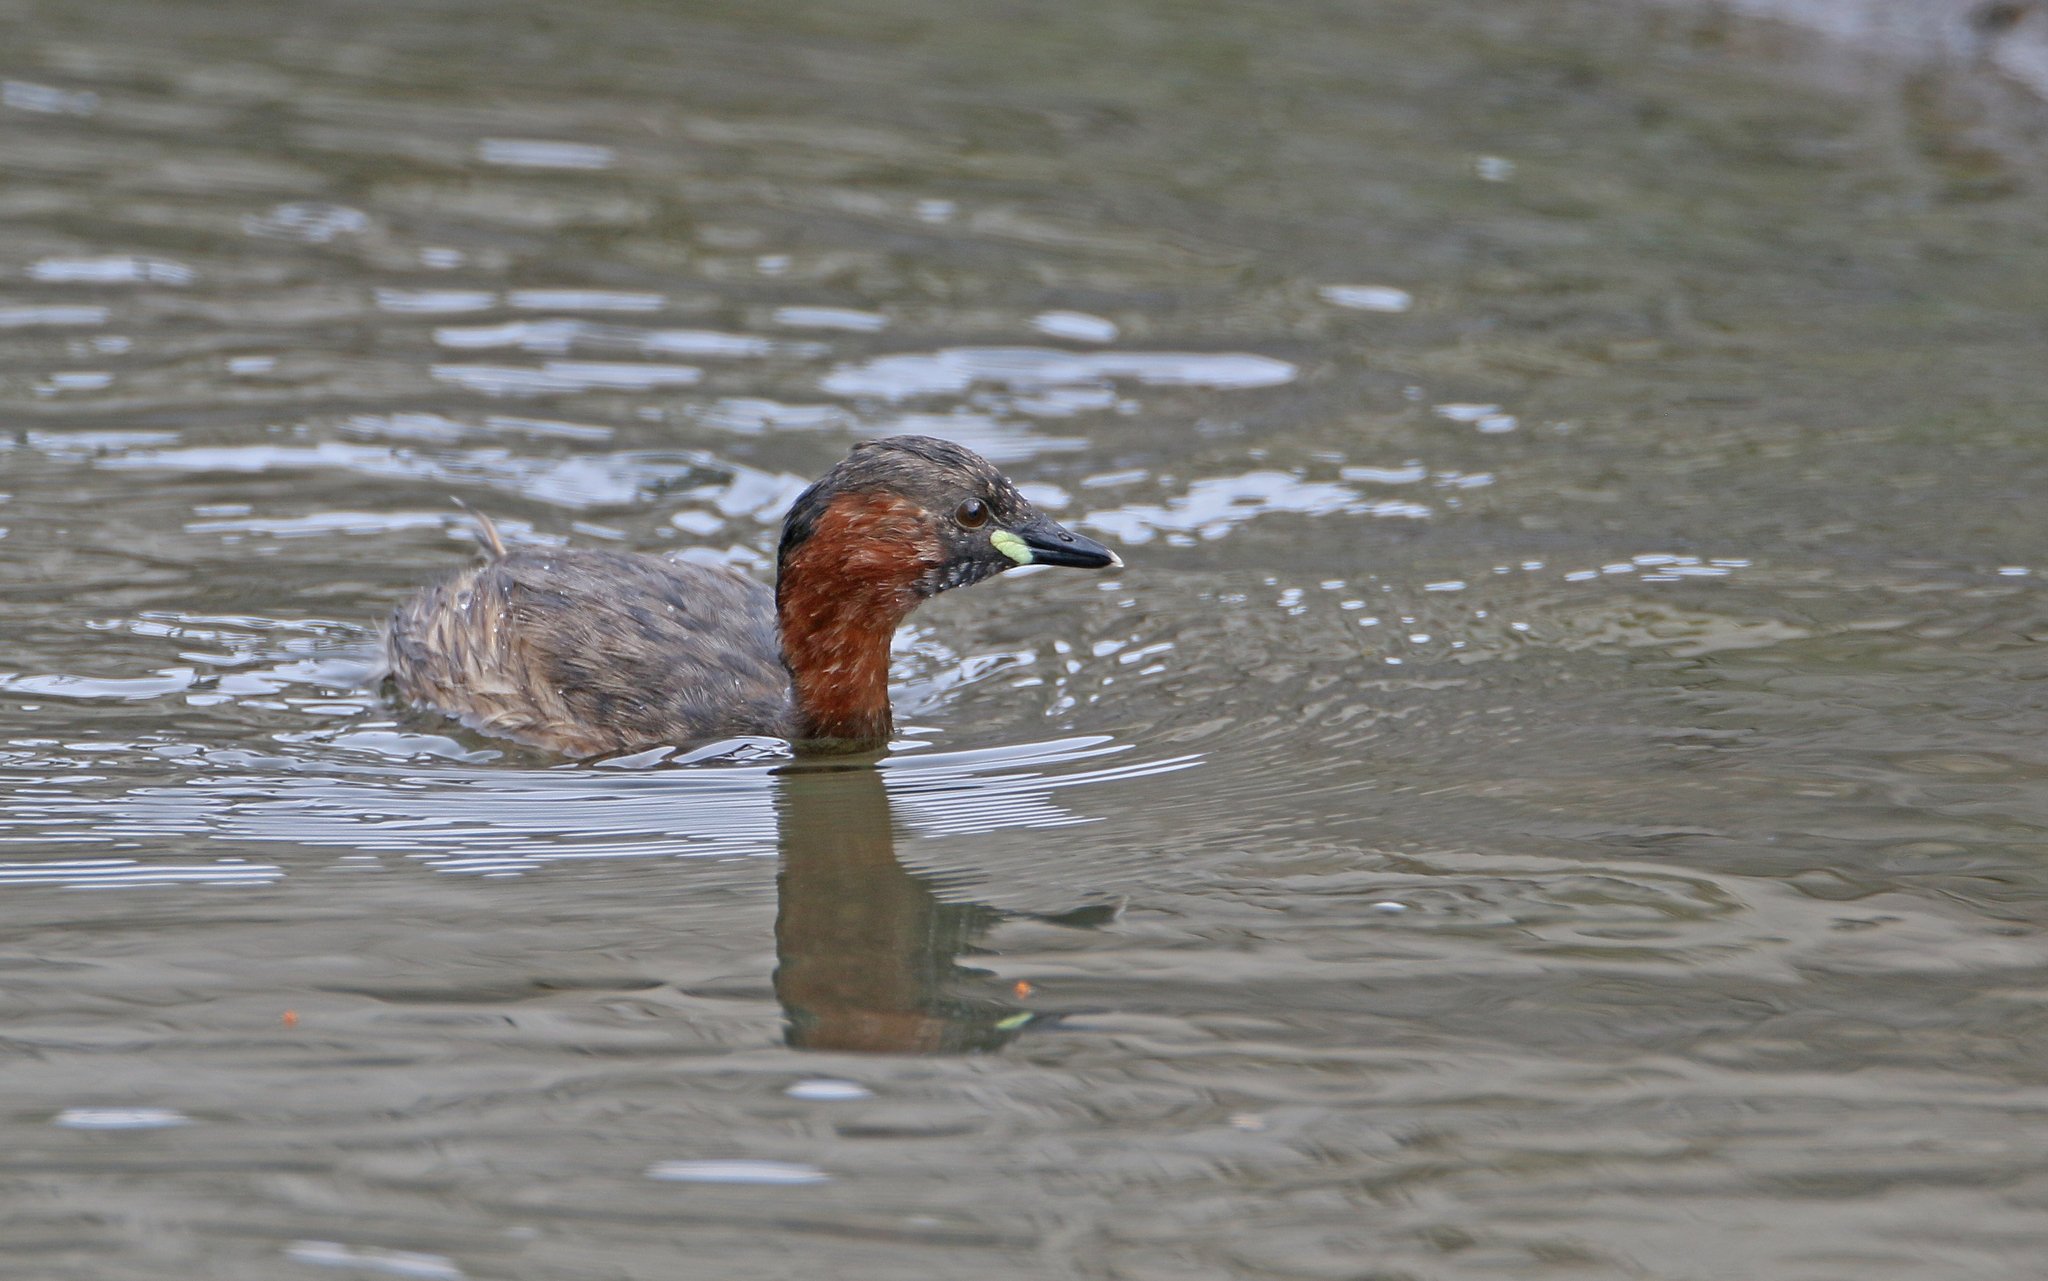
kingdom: Animalia
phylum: Chordata
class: Aves
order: Podicipediformes
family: Podicipedidae
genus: Tachybaptus
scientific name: Tachybaptus ruficollis
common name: Little grebe
